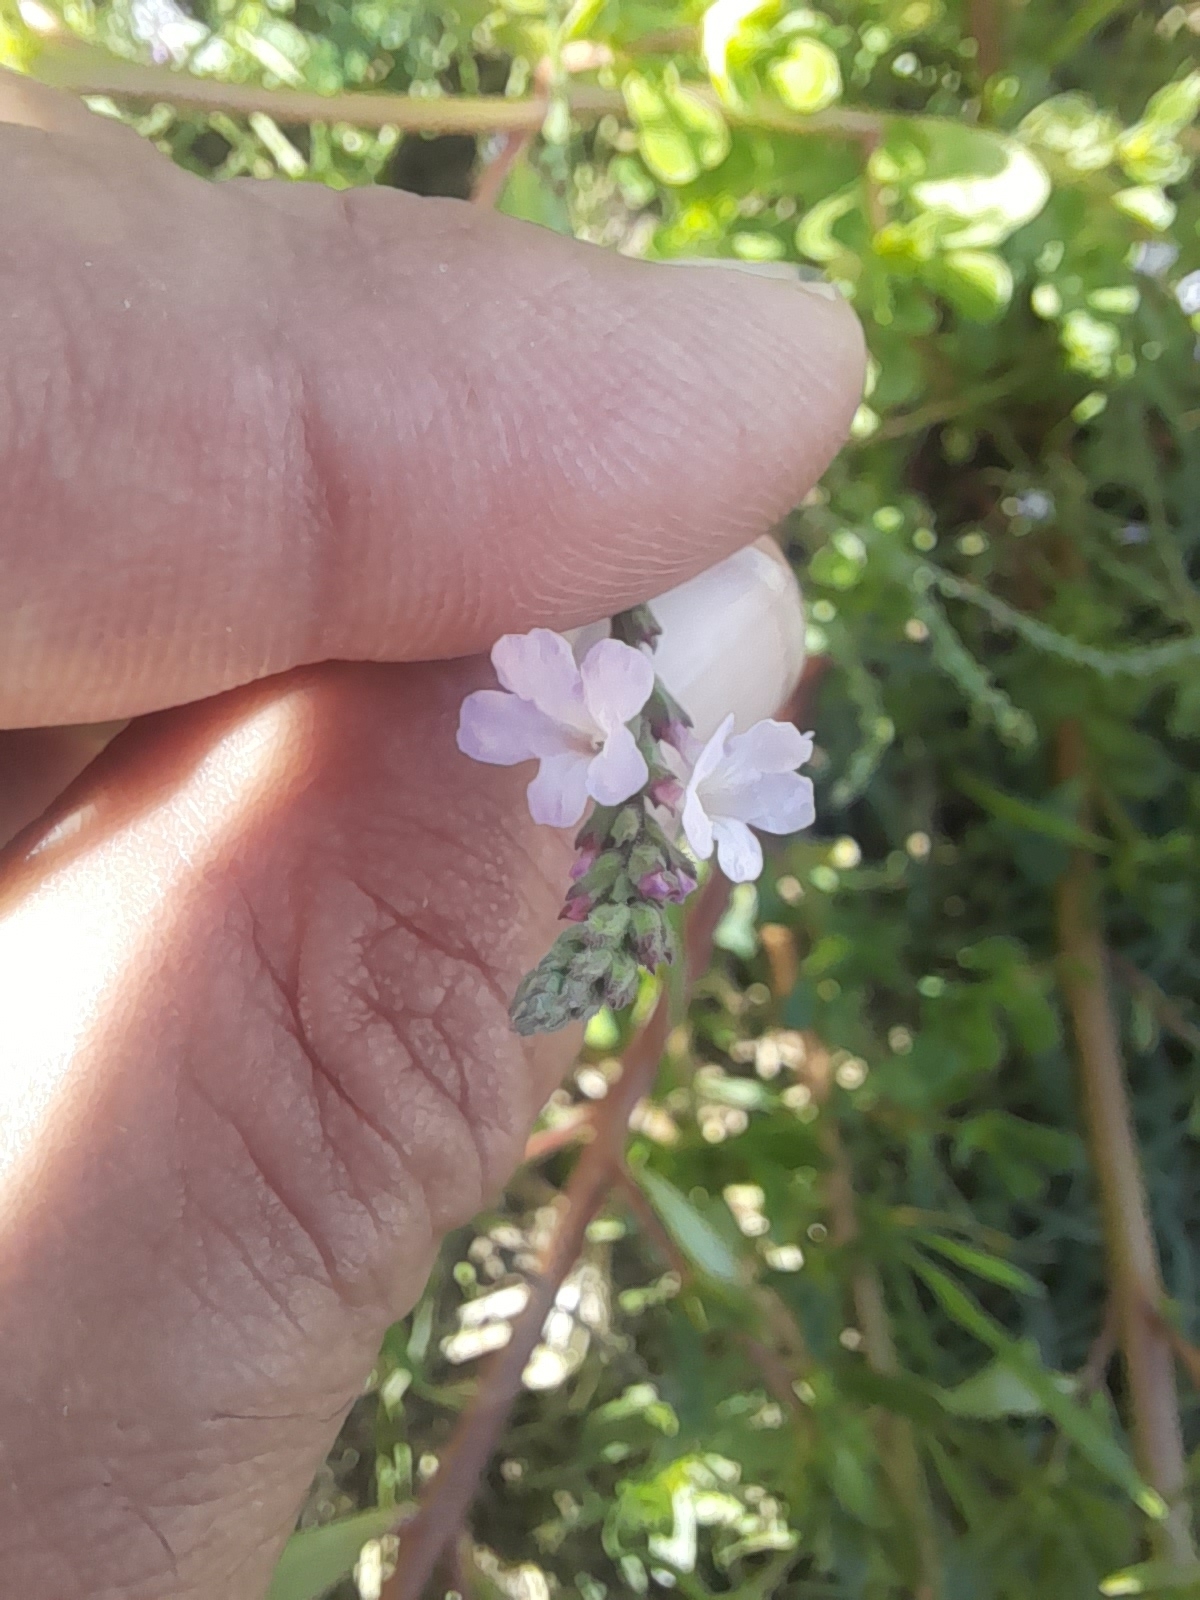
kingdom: Plantae
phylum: Tracheophyta
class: Magnoliopsida
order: Lamiales
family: Verbenaceae
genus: Verbena
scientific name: Verbena officinalis
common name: Vervain
